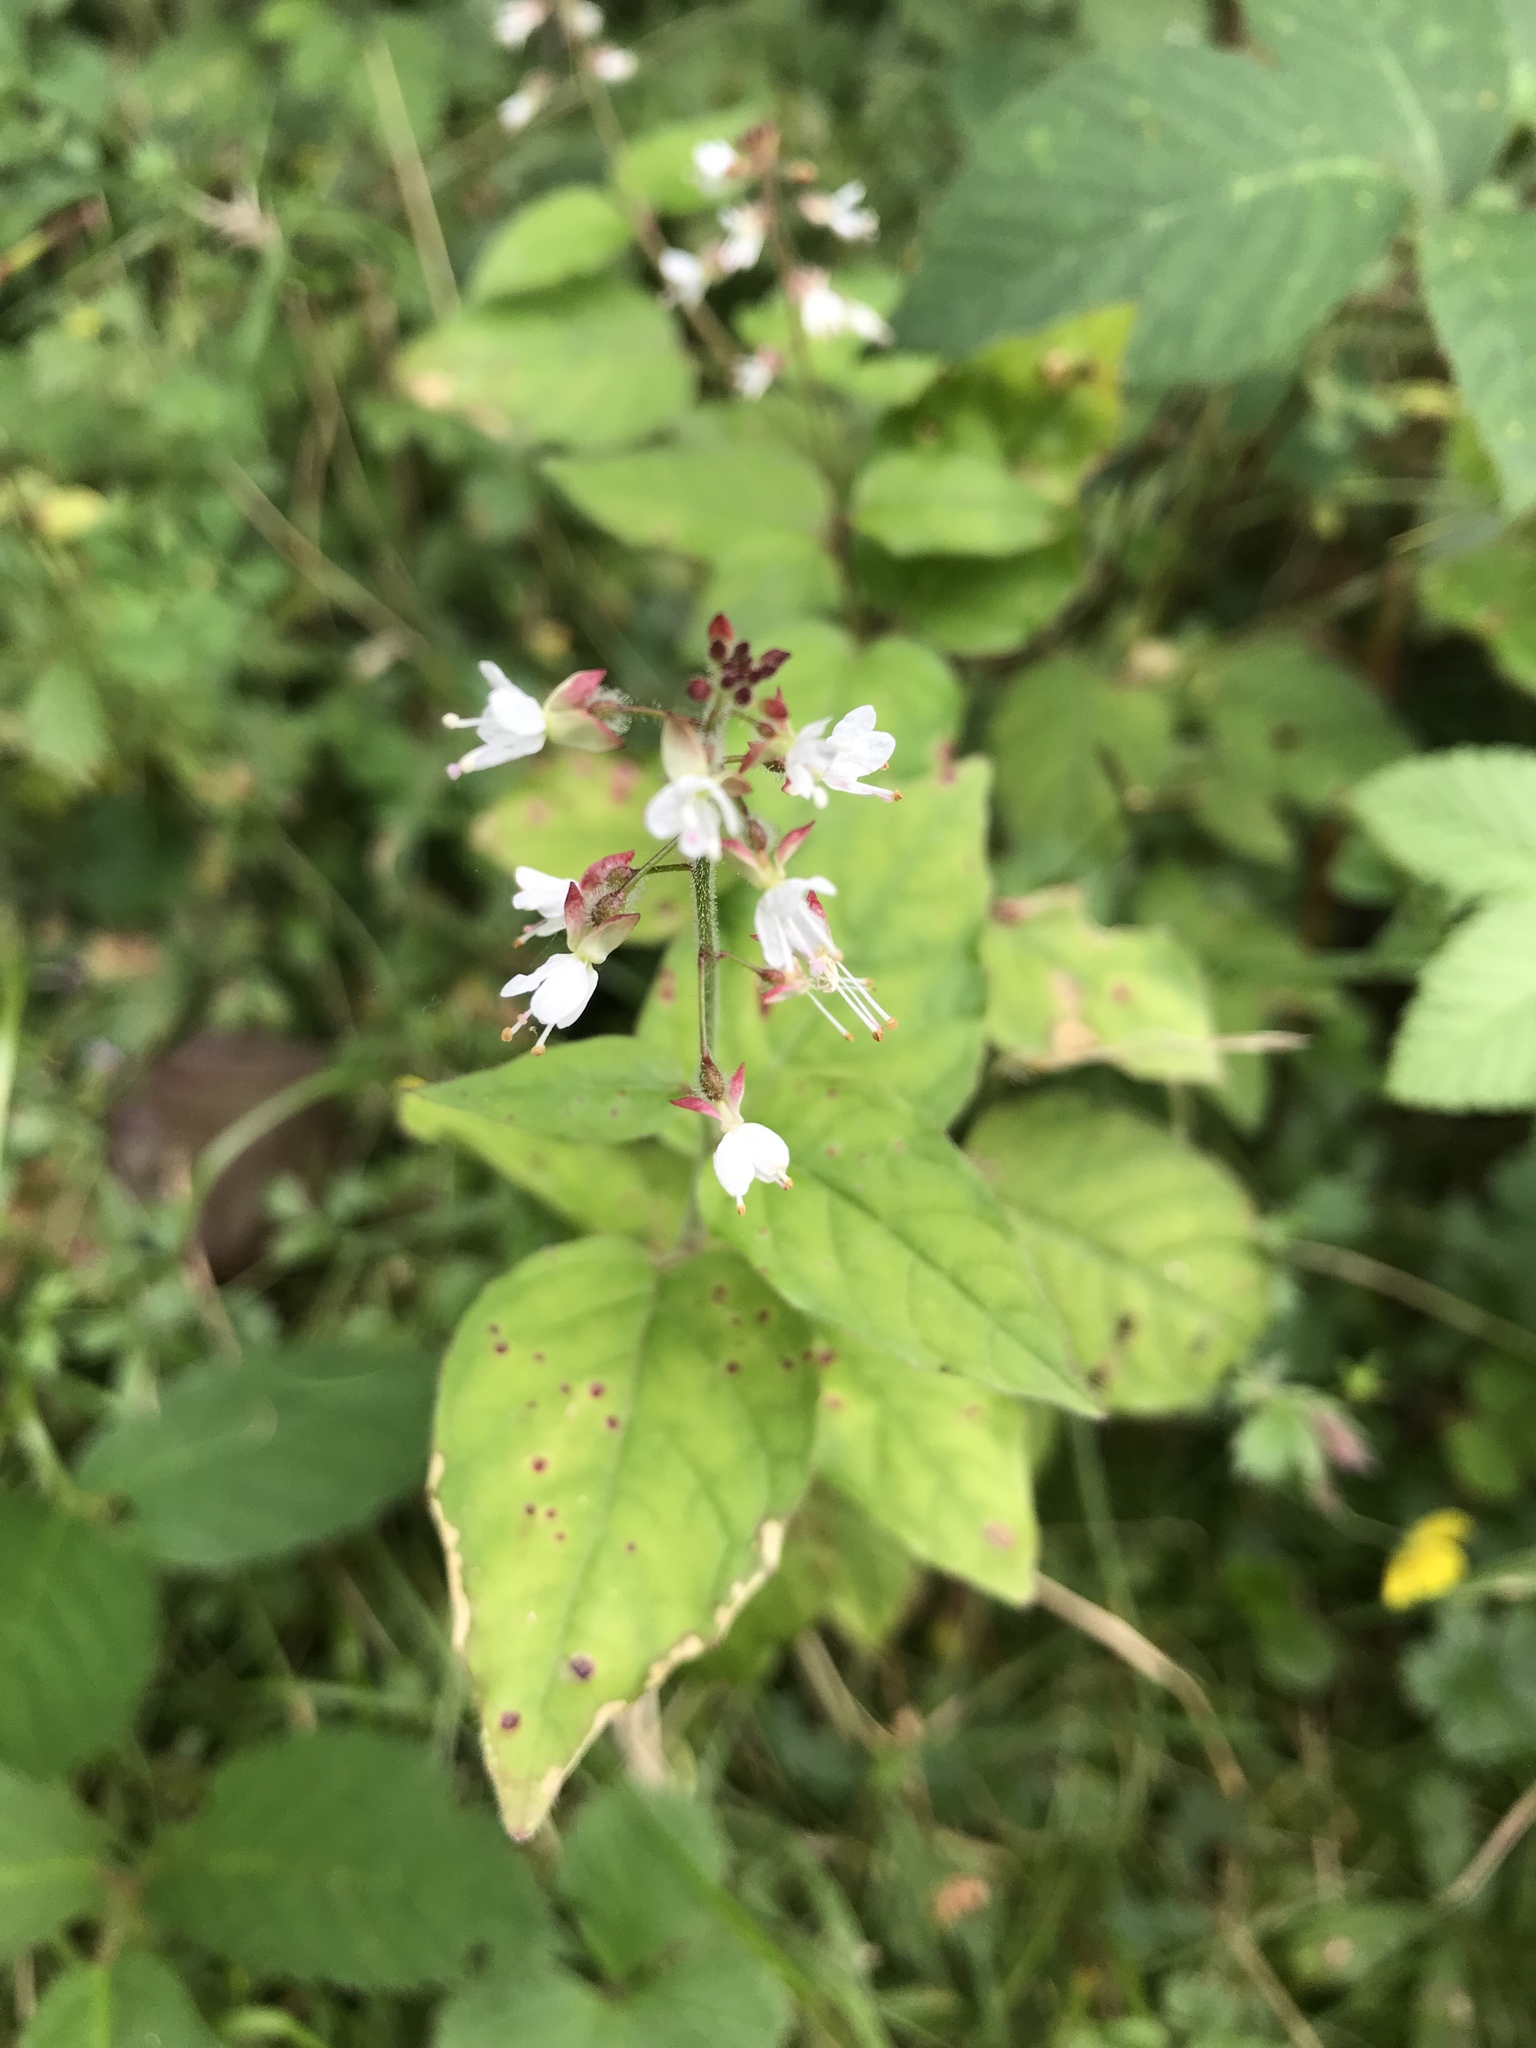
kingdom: Plantae
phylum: Tracheophyta
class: Magnoliopsida
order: Myrtales
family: Onagraceae
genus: Circaea
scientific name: Circaea lutetiana
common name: Enchanter's-nightshade
